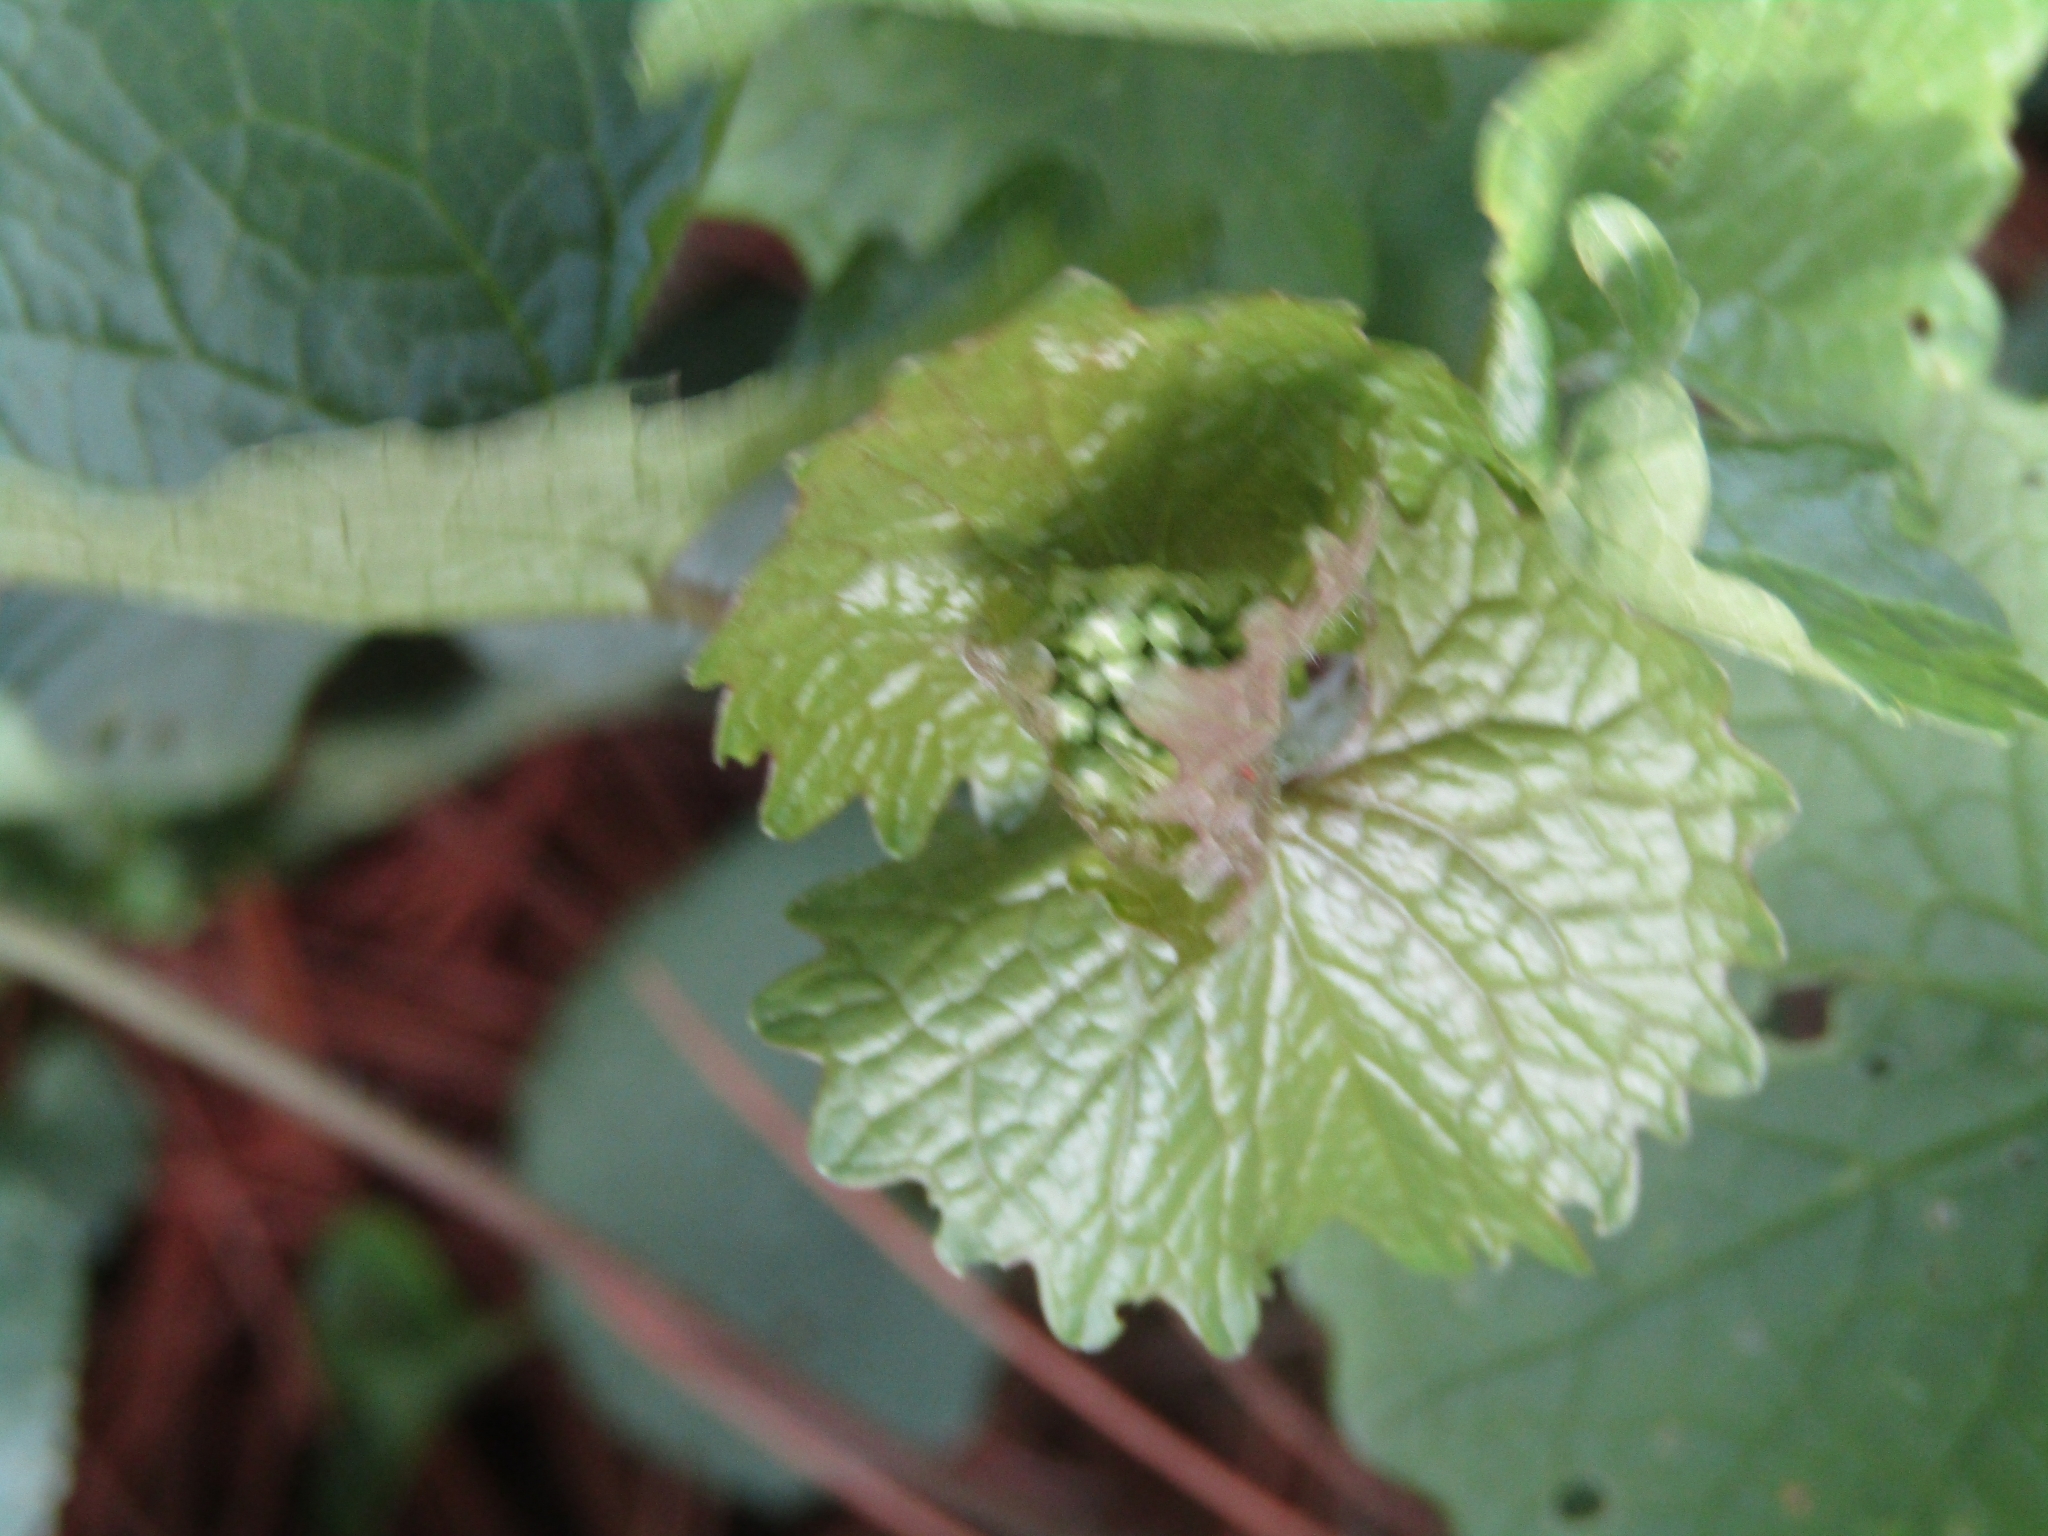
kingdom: Plantae
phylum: Tracheophyta
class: Magnoliopsida
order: Brassicales
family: Brassicaceae
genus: Alliaria
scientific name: Alliaria petiolata
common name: Garlic mustard
